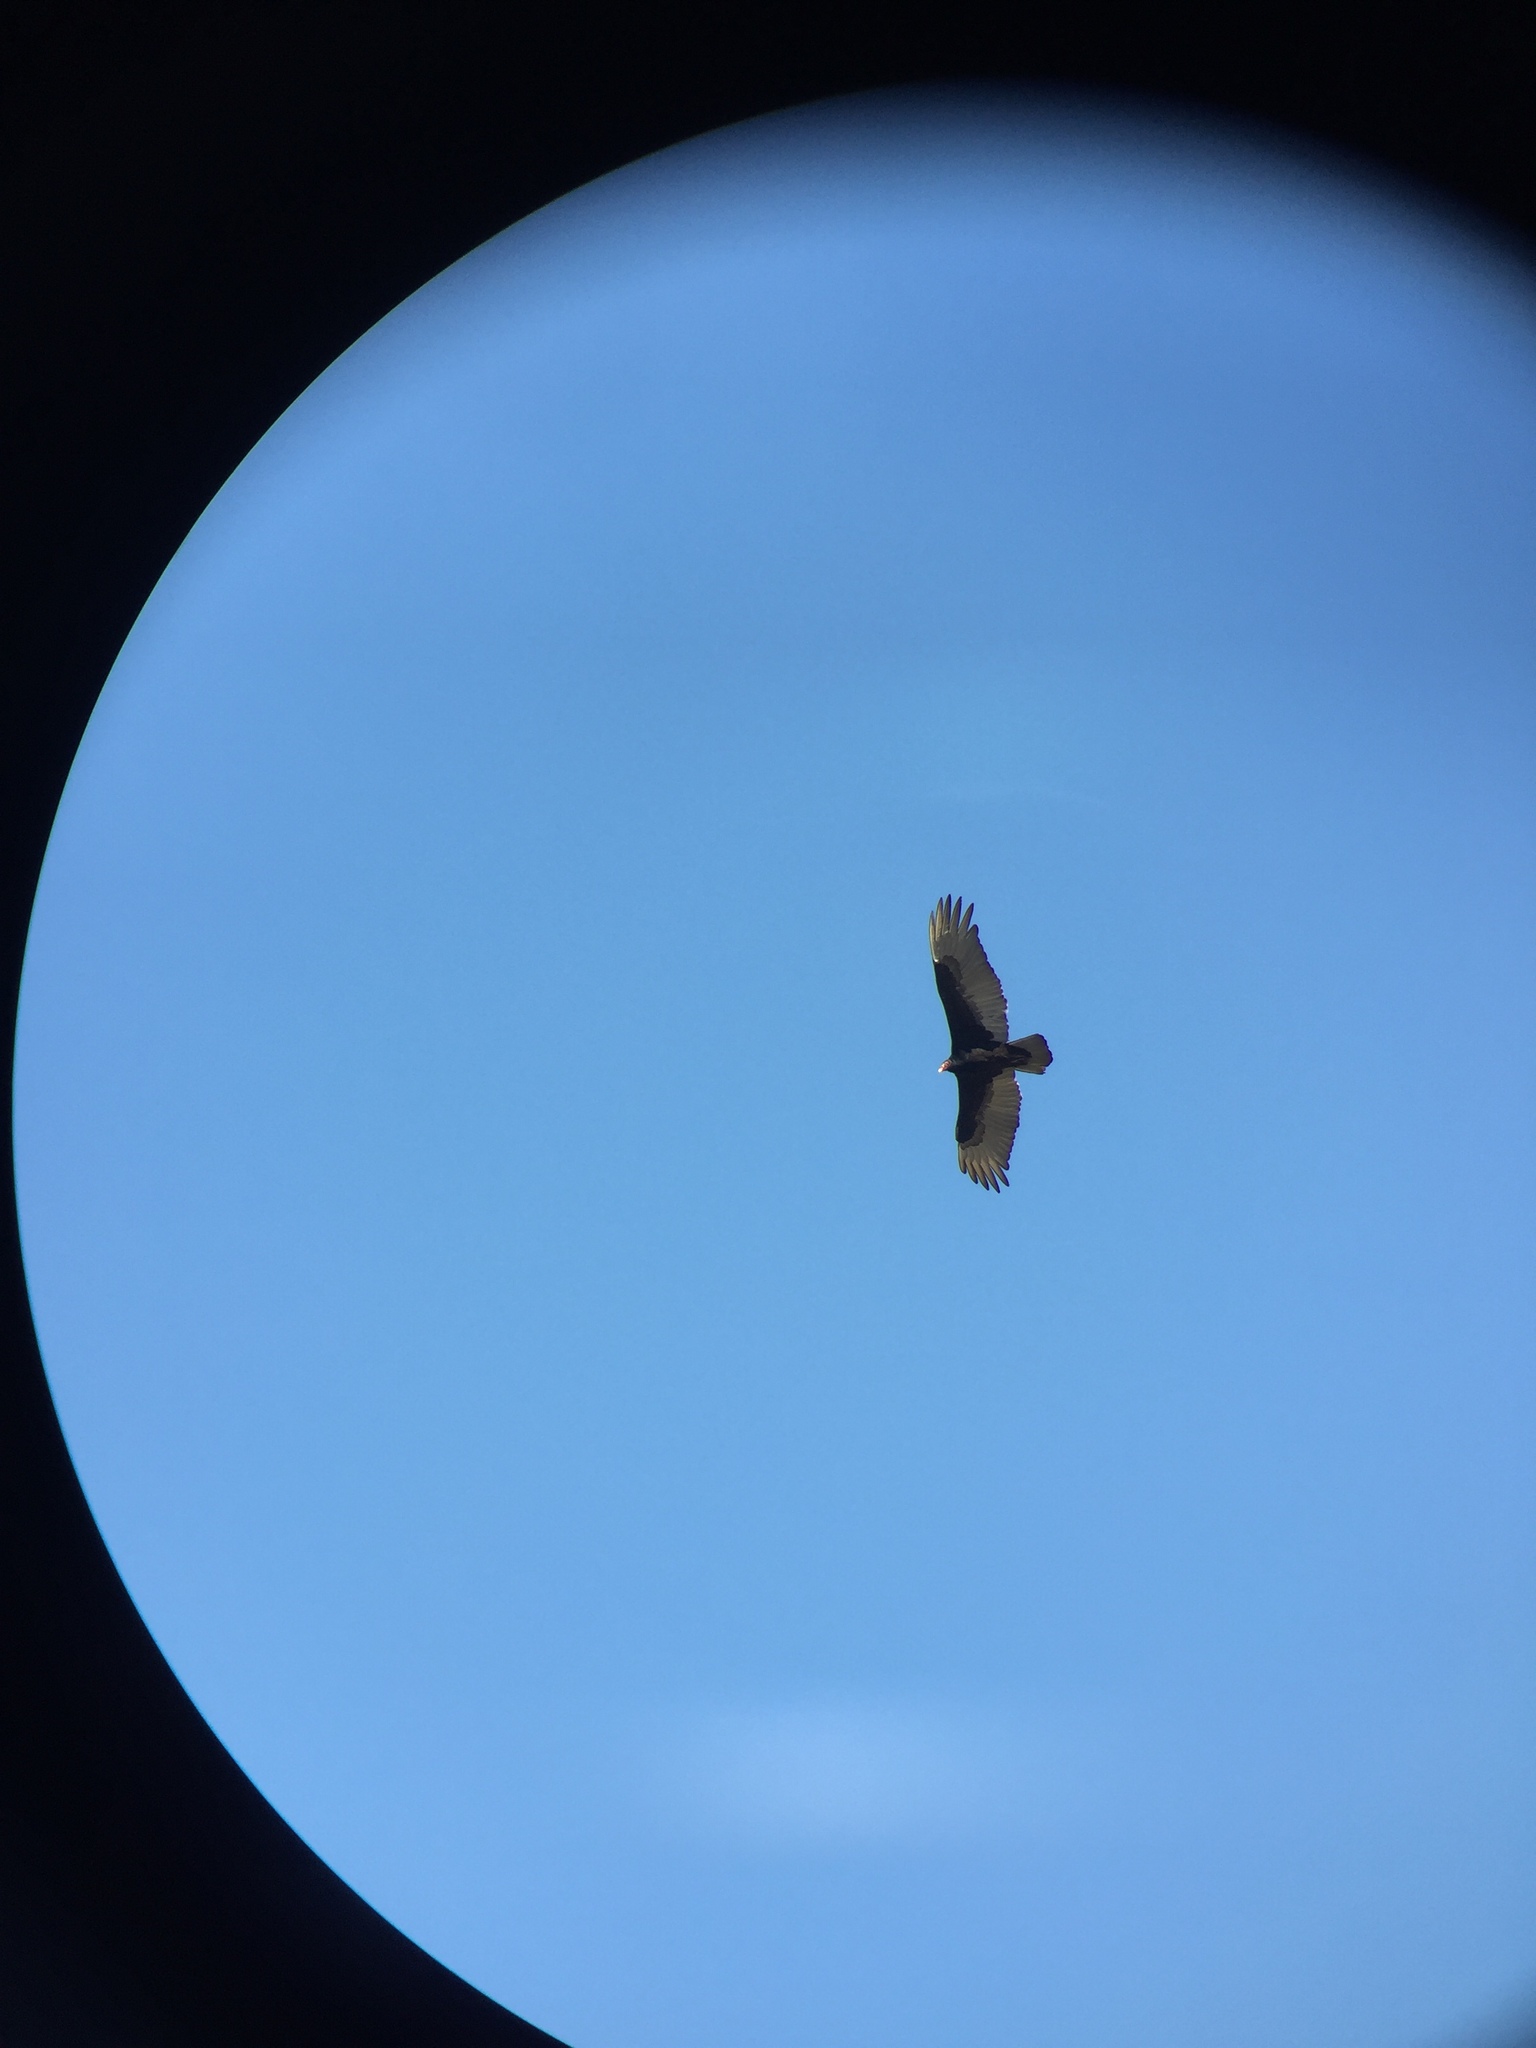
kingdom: Animalia
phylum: Chordata
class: Aves
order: Accipitriformes
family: Cathartidae
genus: Cathartes
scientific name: Cathartes aura
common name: Turkey vulture
